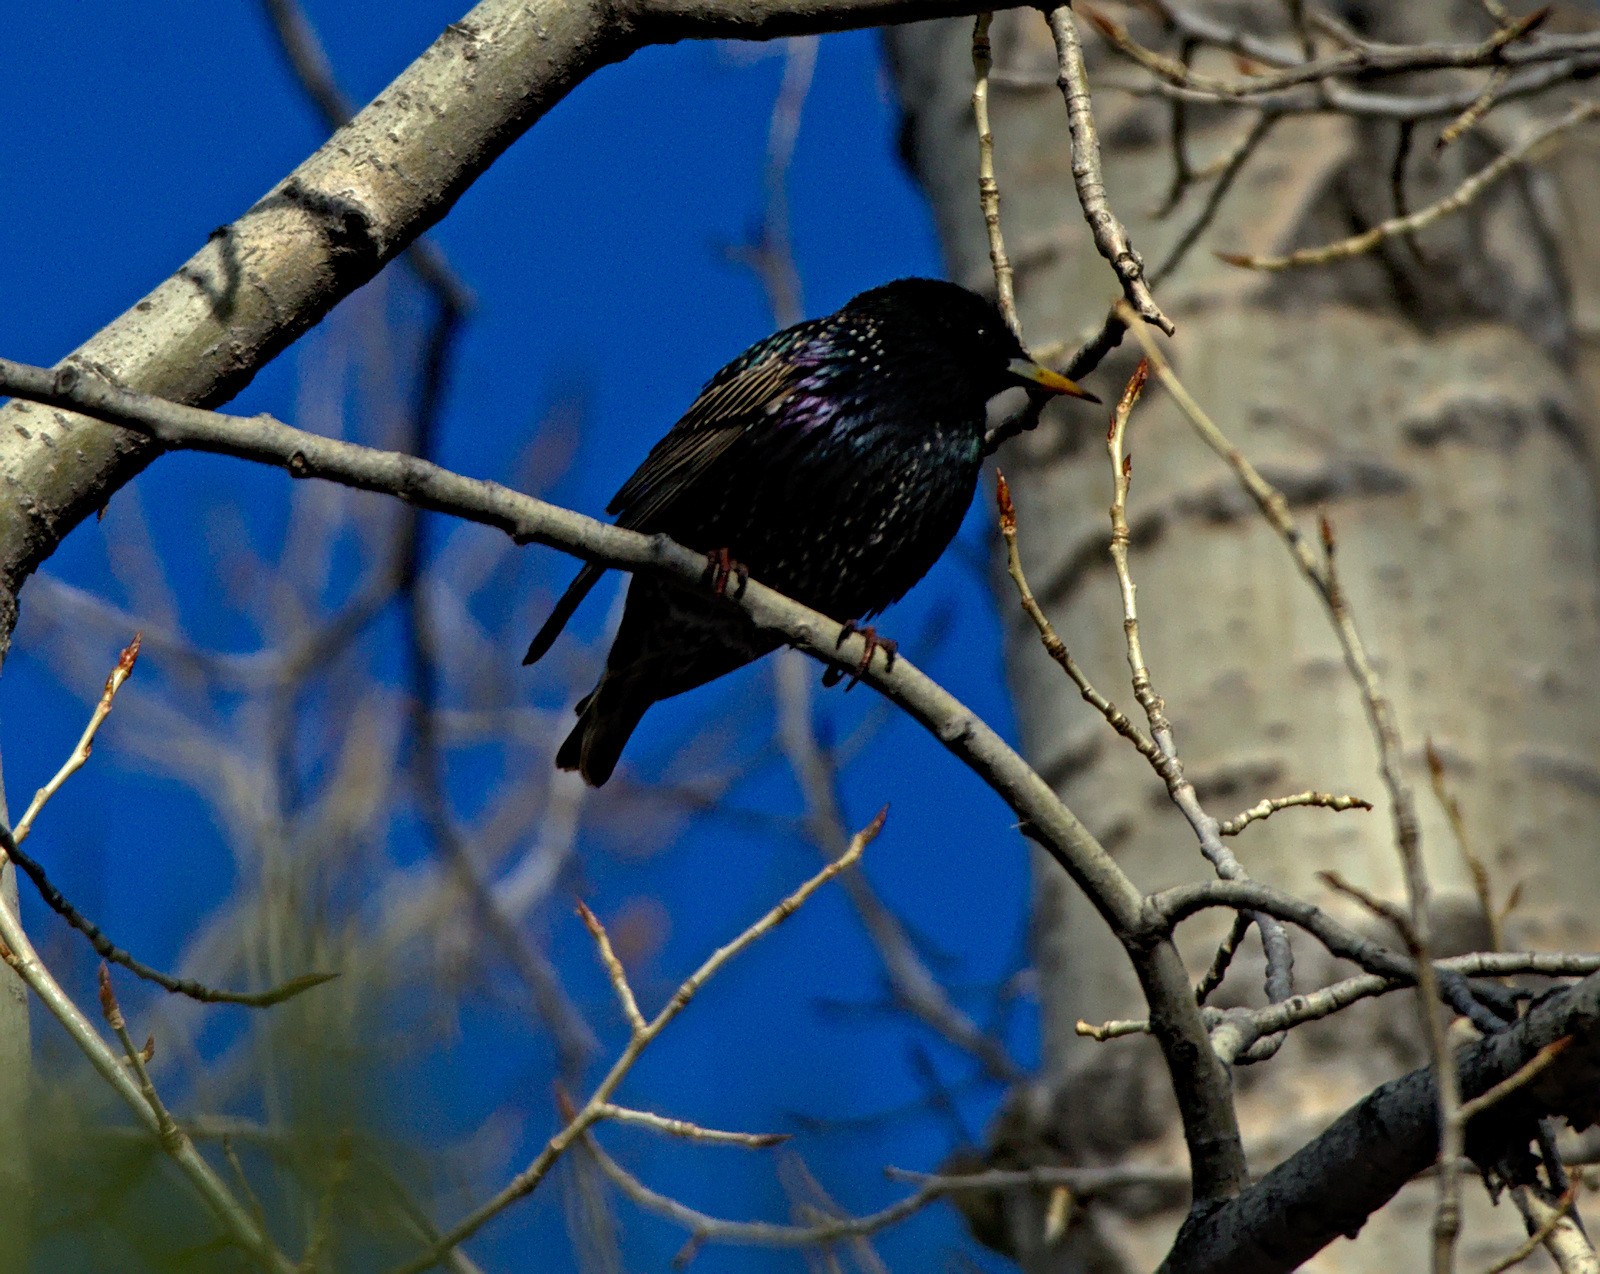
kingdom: Animalia
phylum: Chordata
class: Aves
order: Passeriformes
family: Sturnidae
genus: Sturnus
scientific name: Sturnus vulgaris
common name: Common starling
